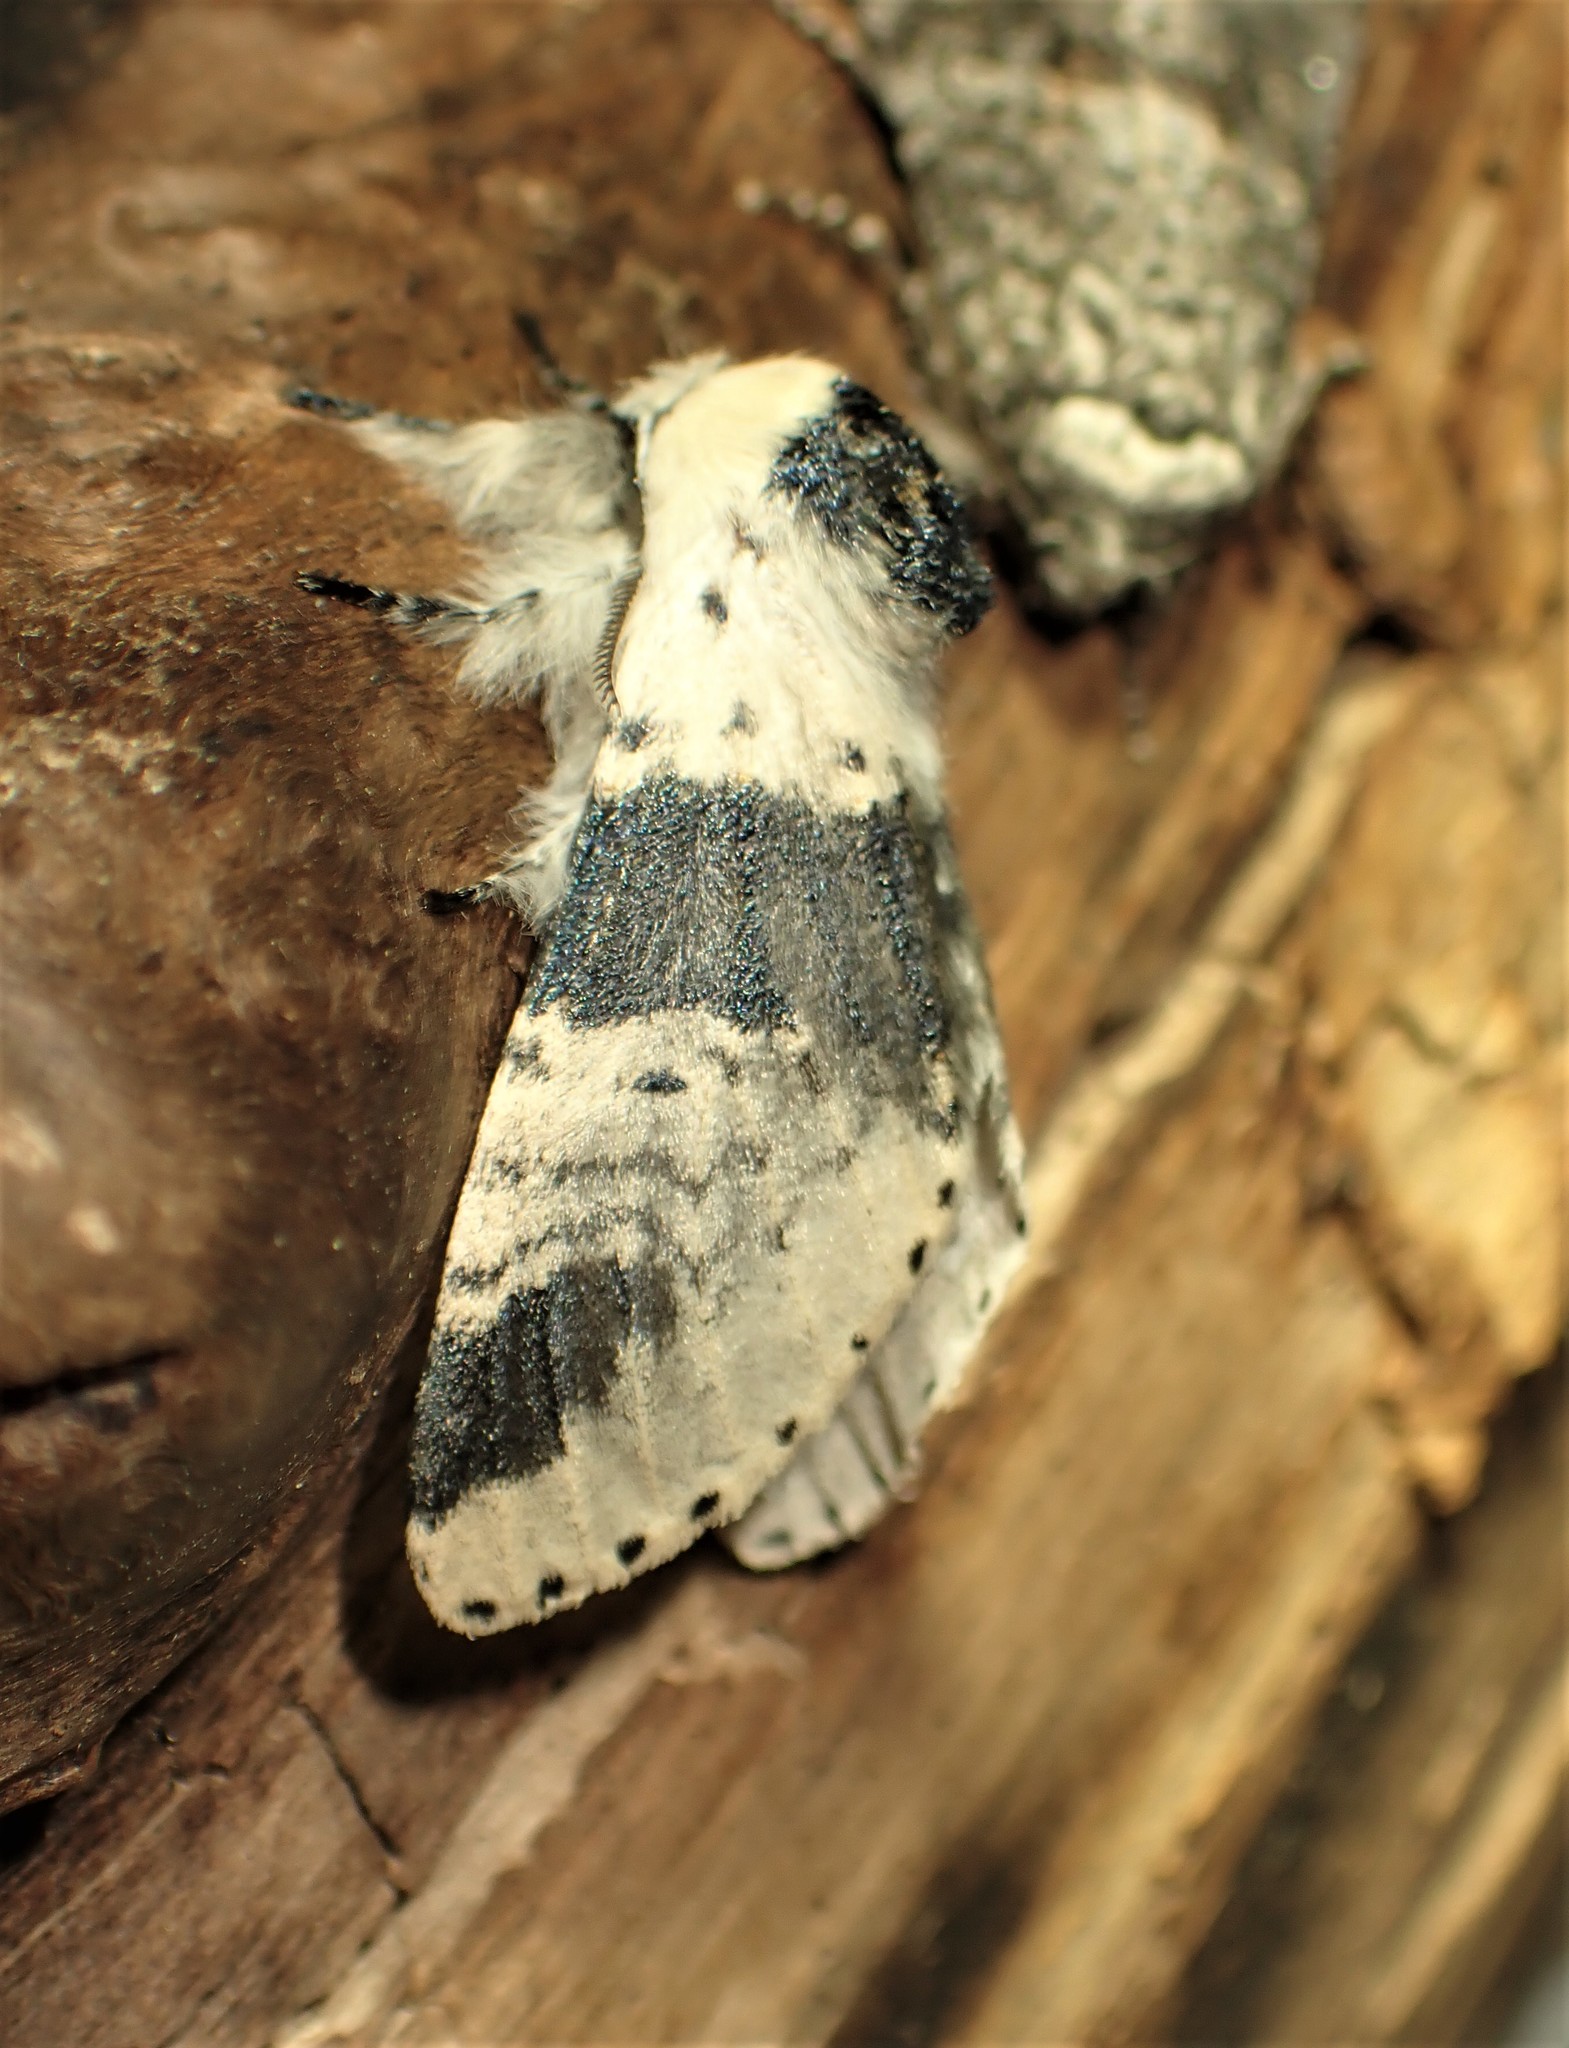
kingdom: Animalia
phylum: Arthropoda
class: Insecta
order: Lepidoptera
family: Notodontidae
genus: Furcula
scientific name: Furcula modesta
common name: Modest furcula moth
